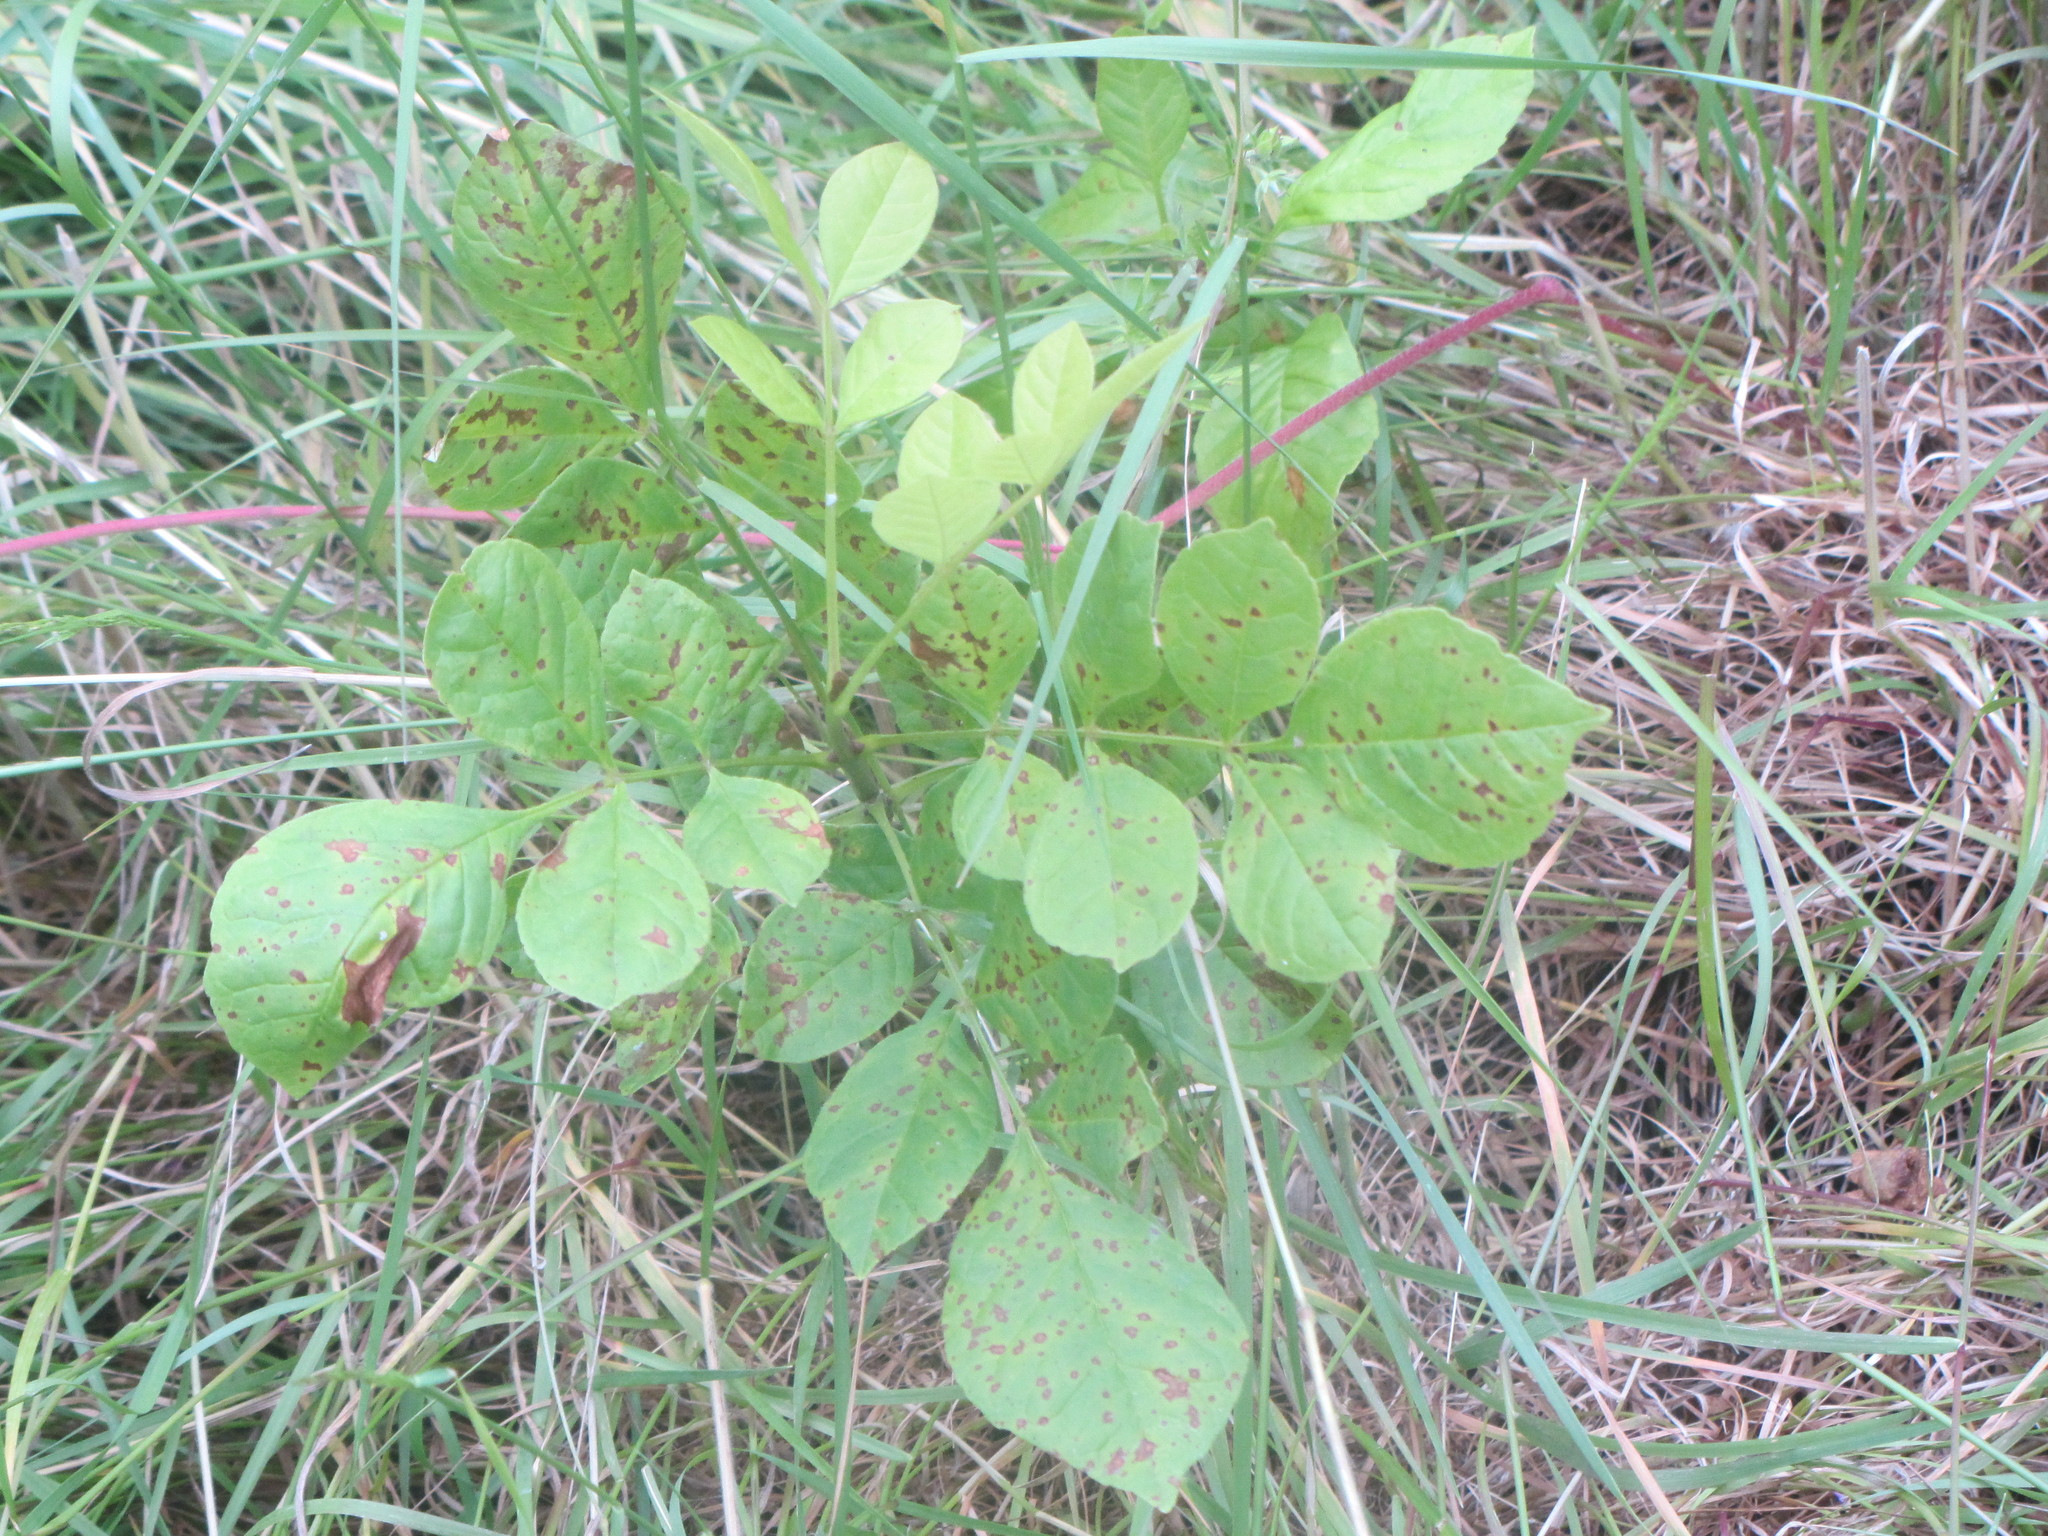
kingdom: Plantae
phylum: Tracheophyta
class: Magnoliopsida
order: Lamiales
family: Oleaceae
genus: Fraxinus
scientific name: Fraxinus latifolia
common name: Oregon ash
